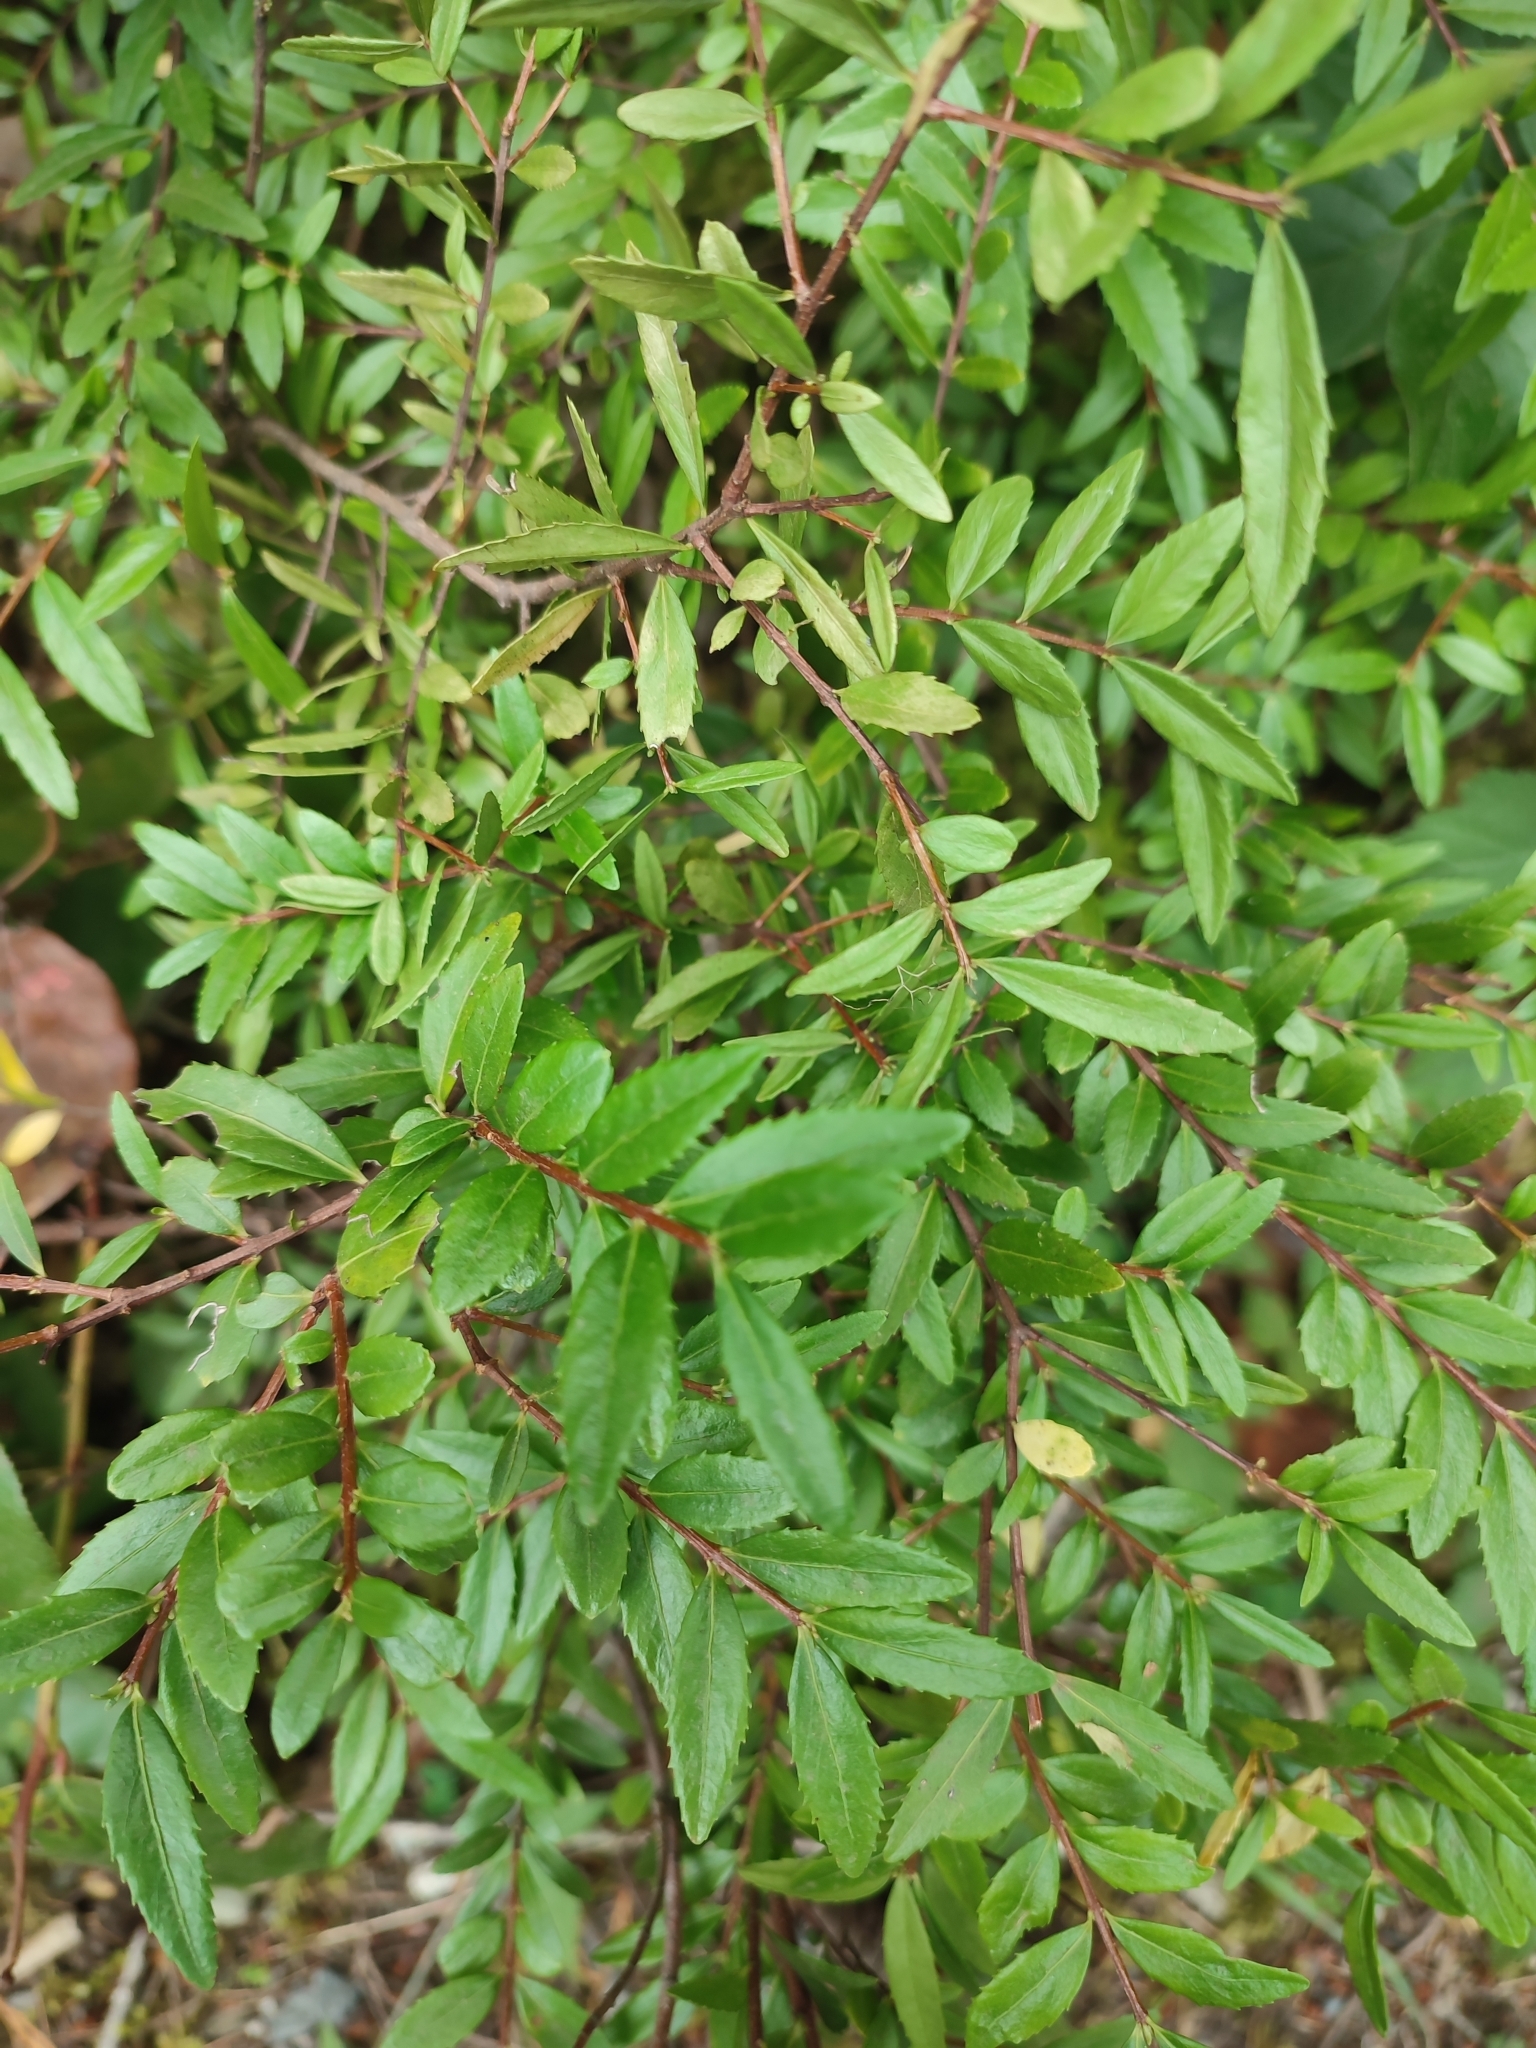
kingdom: Plantae
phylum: Tracheophyta
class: Magnoliopsida
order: Celastrales
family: Celastraceae
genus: Paxistima
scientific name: Paxistima myrsinites
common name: Mountain-lover
